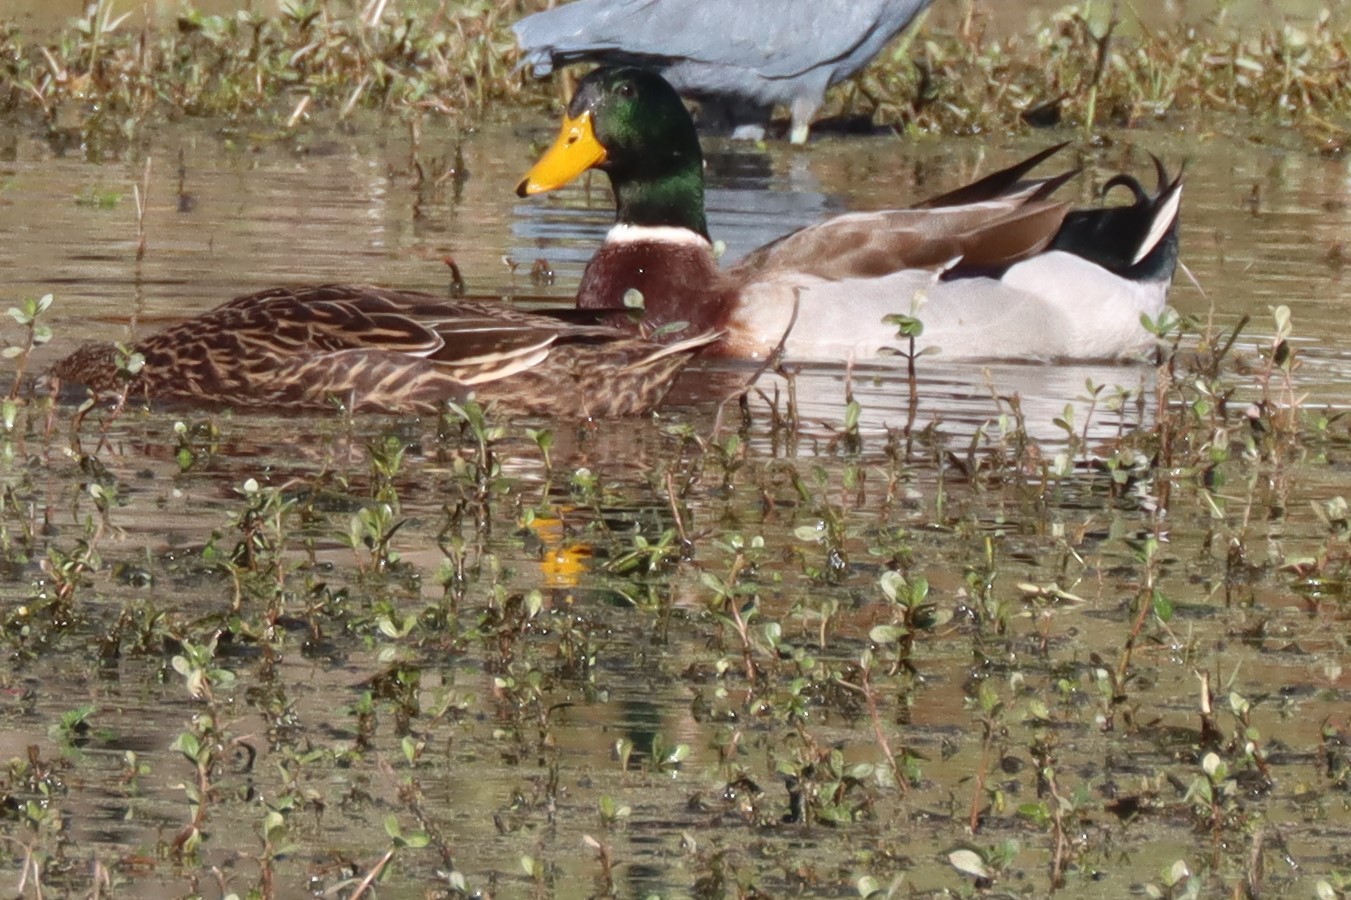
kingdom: Animalia
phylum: Chordata
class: Aves
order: Anseriformes
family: Anatidae
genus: Anas
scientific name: Anas platyrhynchos
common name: Mallard
